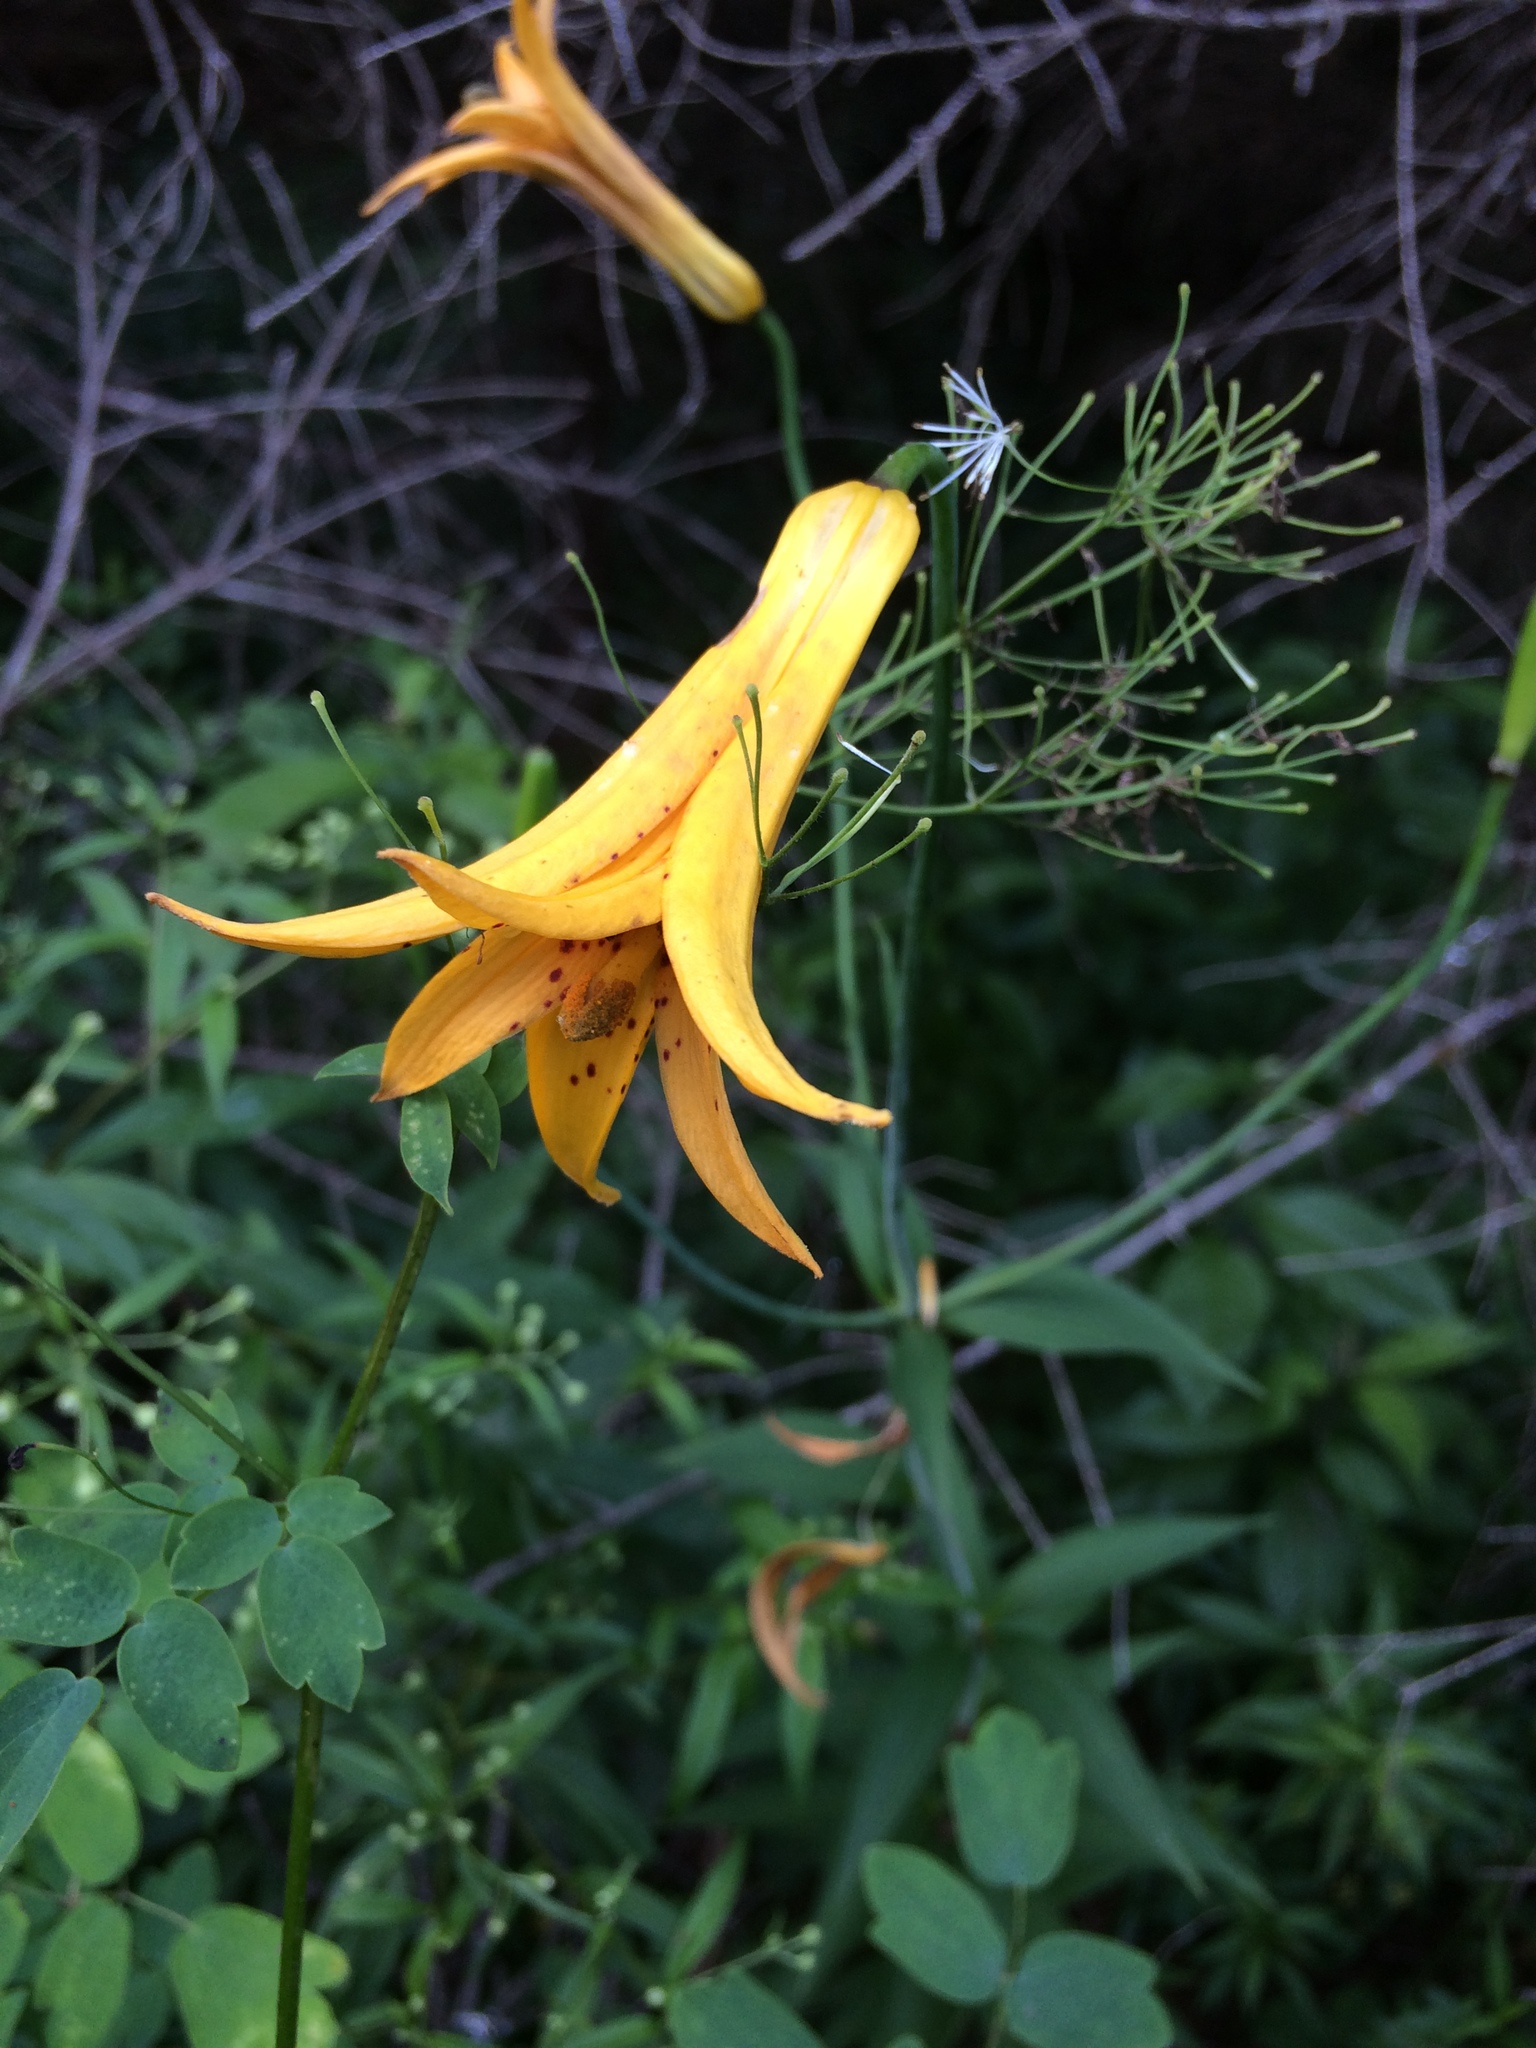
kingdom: Plantae
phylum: Tracheophyta
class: Liliopsida
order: Liliales
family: Liliaceae
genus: Lilium
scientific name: Lilium canadense
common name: Canada lily
